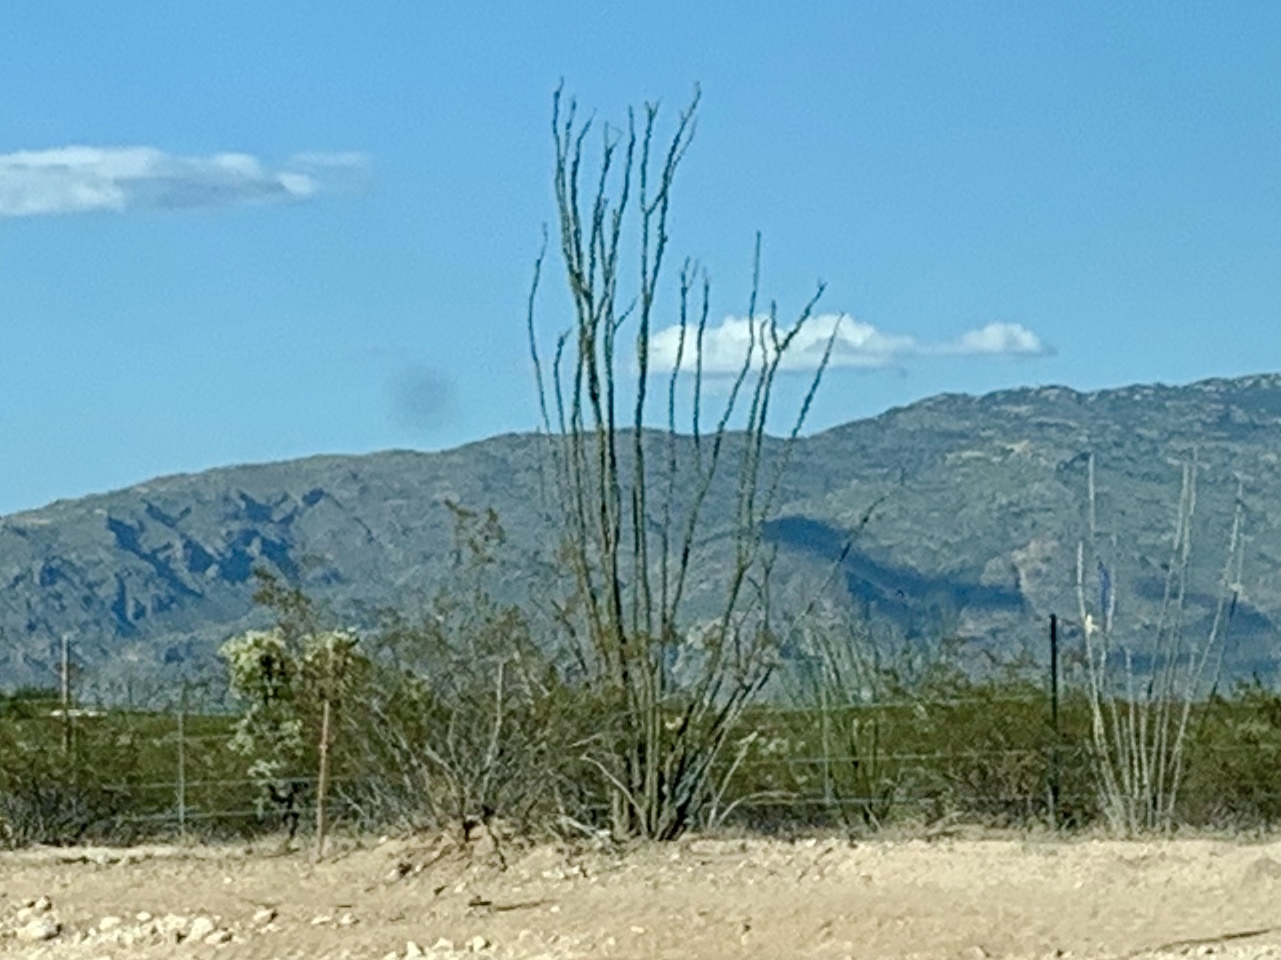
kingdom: Plantae
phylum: Tracheophyta
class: Magnoliopsida
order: Ericales
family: Fouquieriaceae
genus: Fouquieria
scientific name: Fouquieria splendens
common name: Vine-cactus
